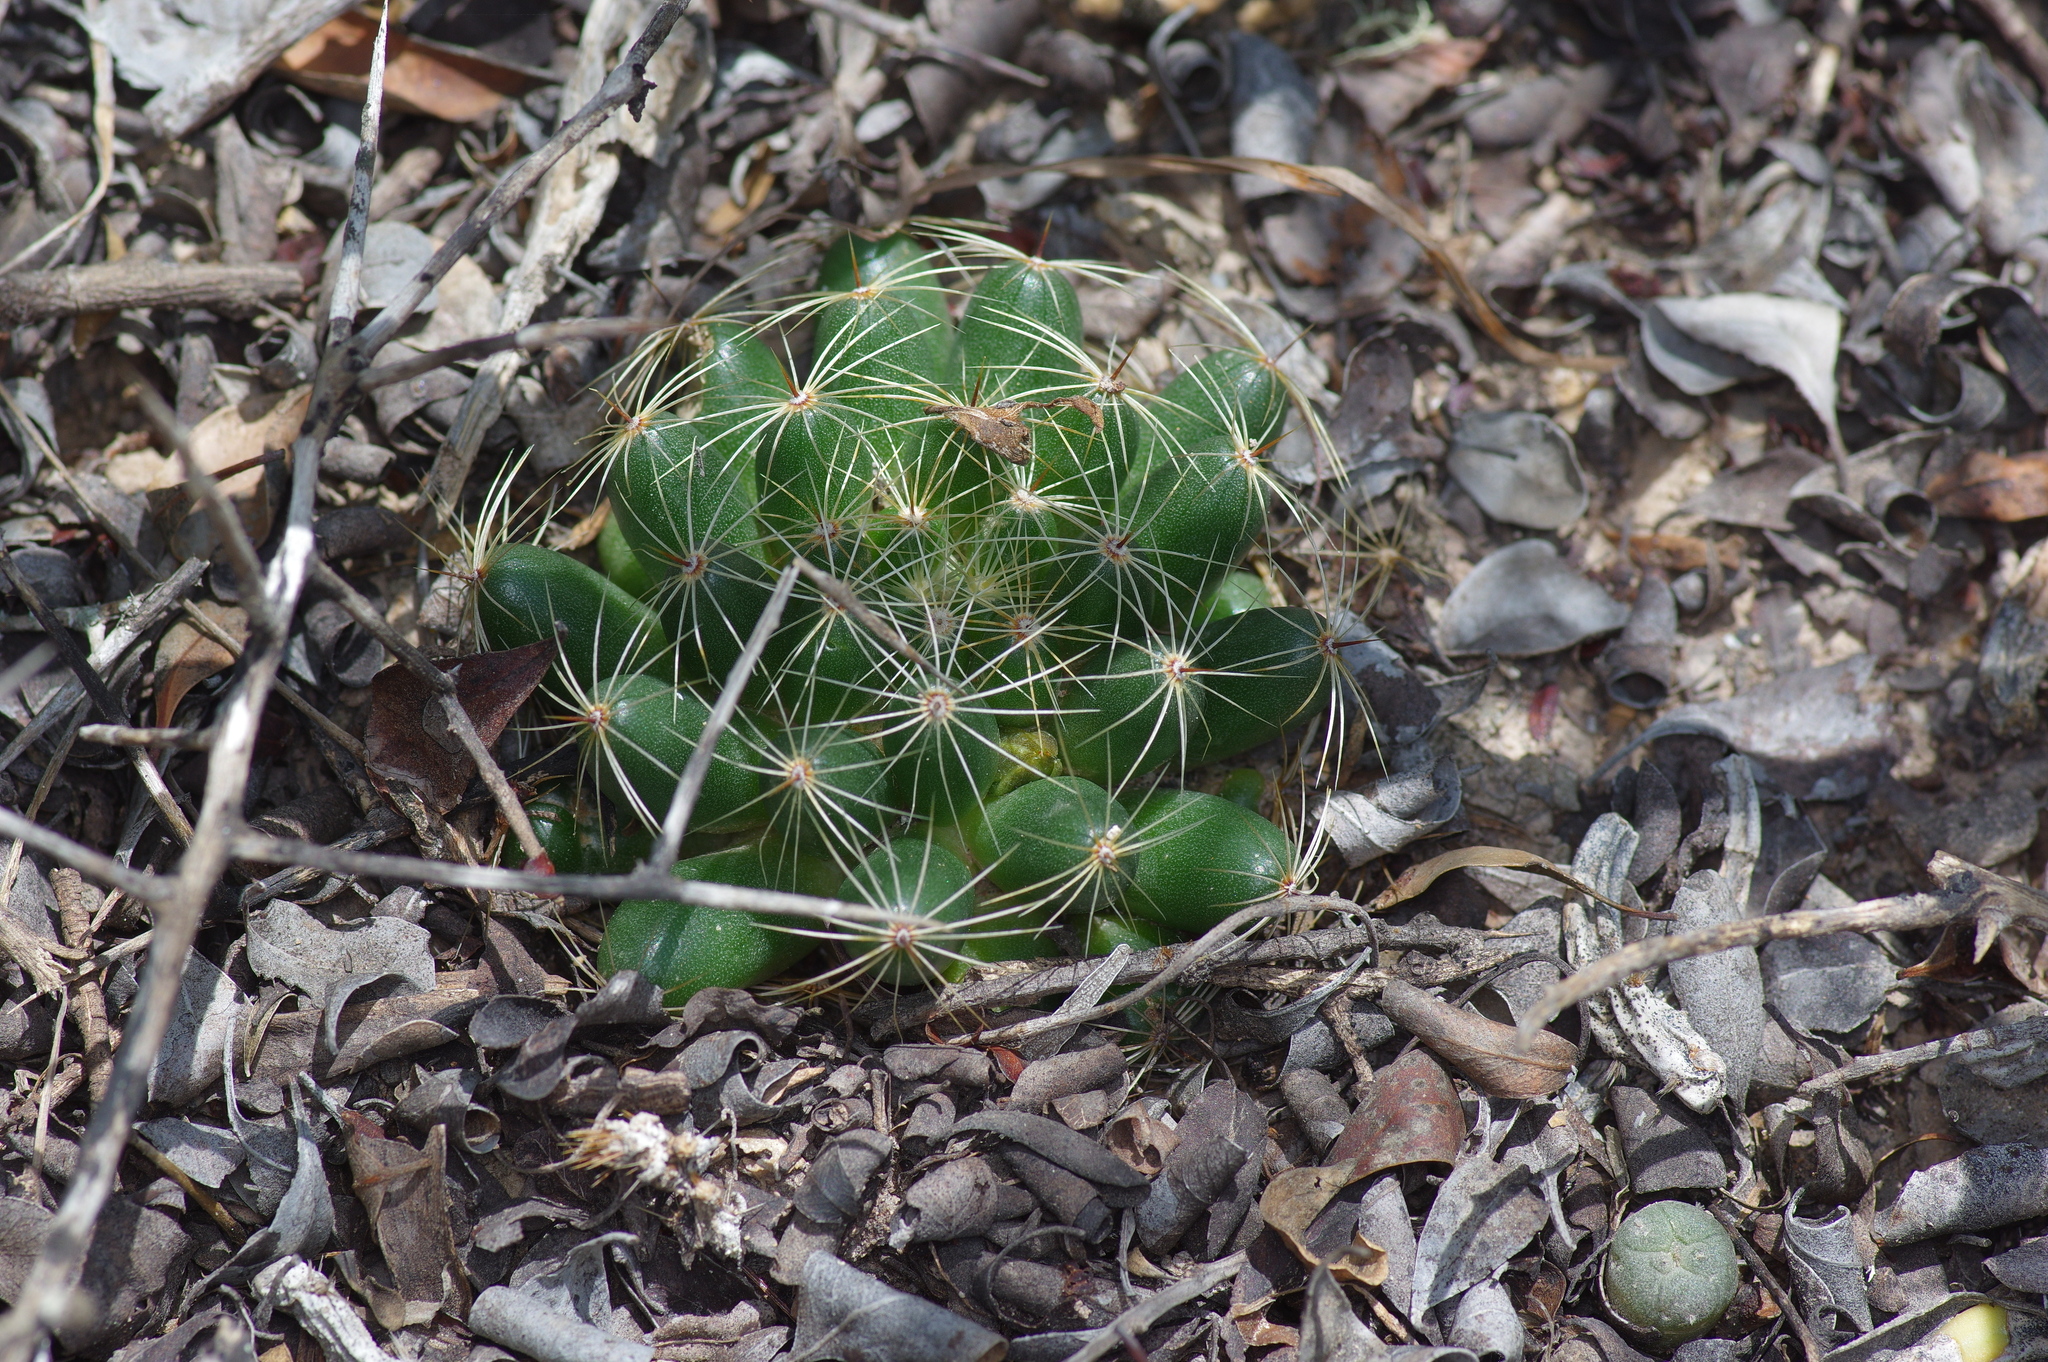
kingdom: Plantae
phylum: Tracheophyta
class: Magnoliopsida
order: Caryophyllales
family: Cactaceae
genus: Mammillaria
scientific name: Mammillaria sphaerica
